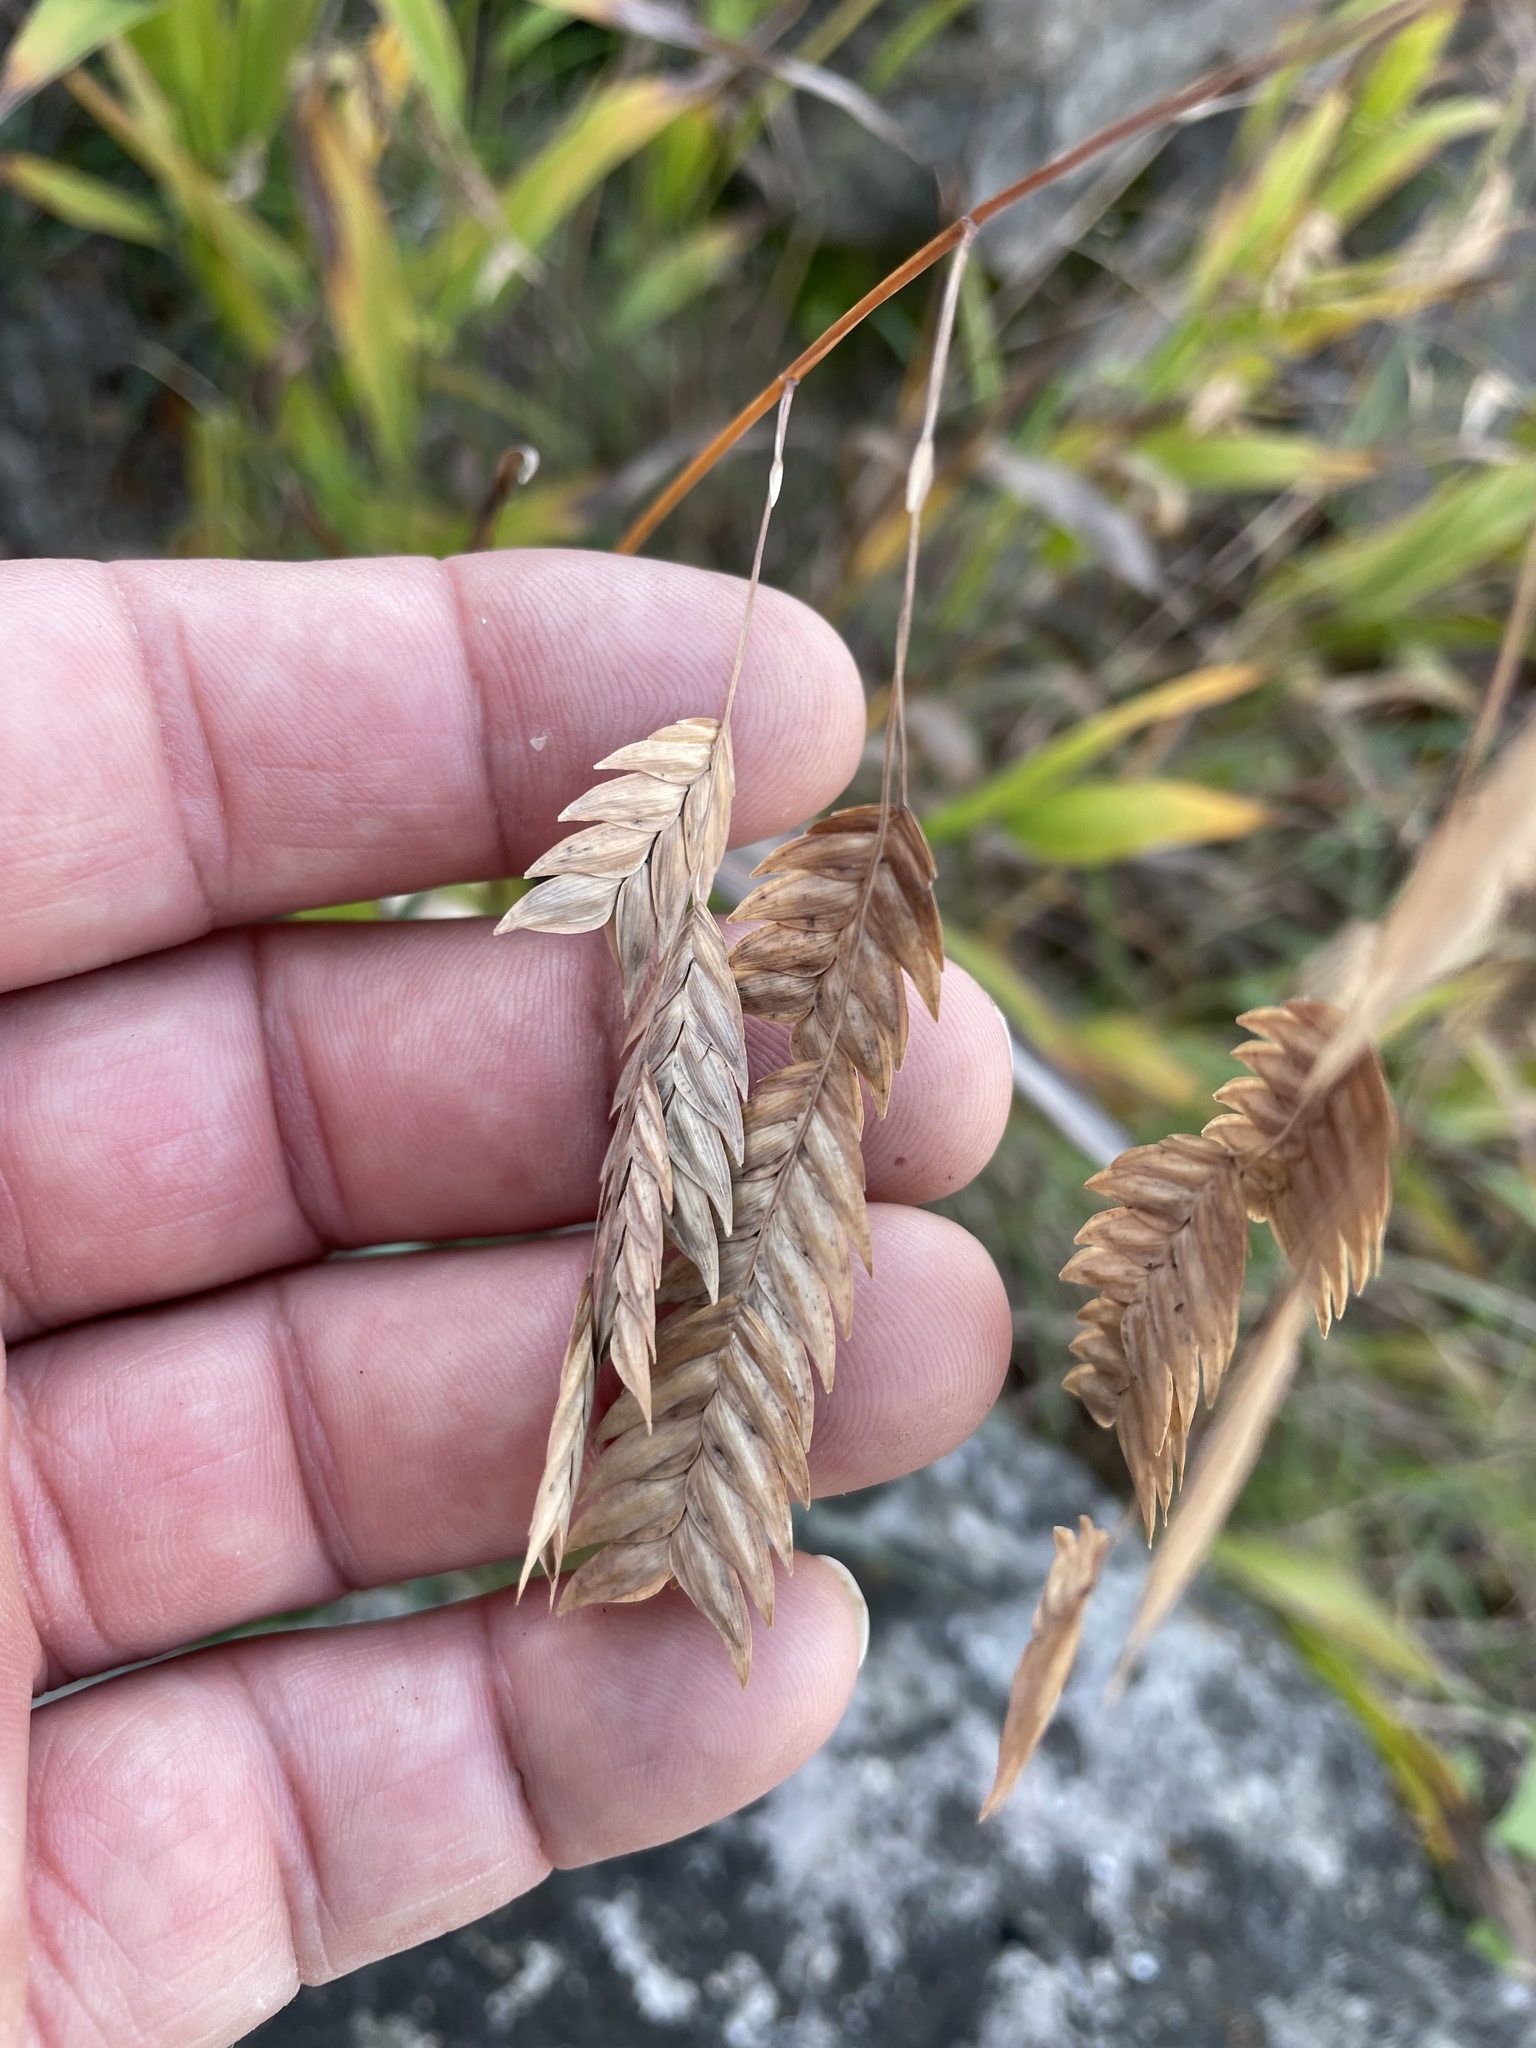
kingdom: Plantae
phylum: Tracheophyta
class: Liliopsida
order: Poales
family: Poaceae
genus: Chasmanthium
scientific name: Chasmanthium latifolium
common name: Broad-leaved chasmanthium
